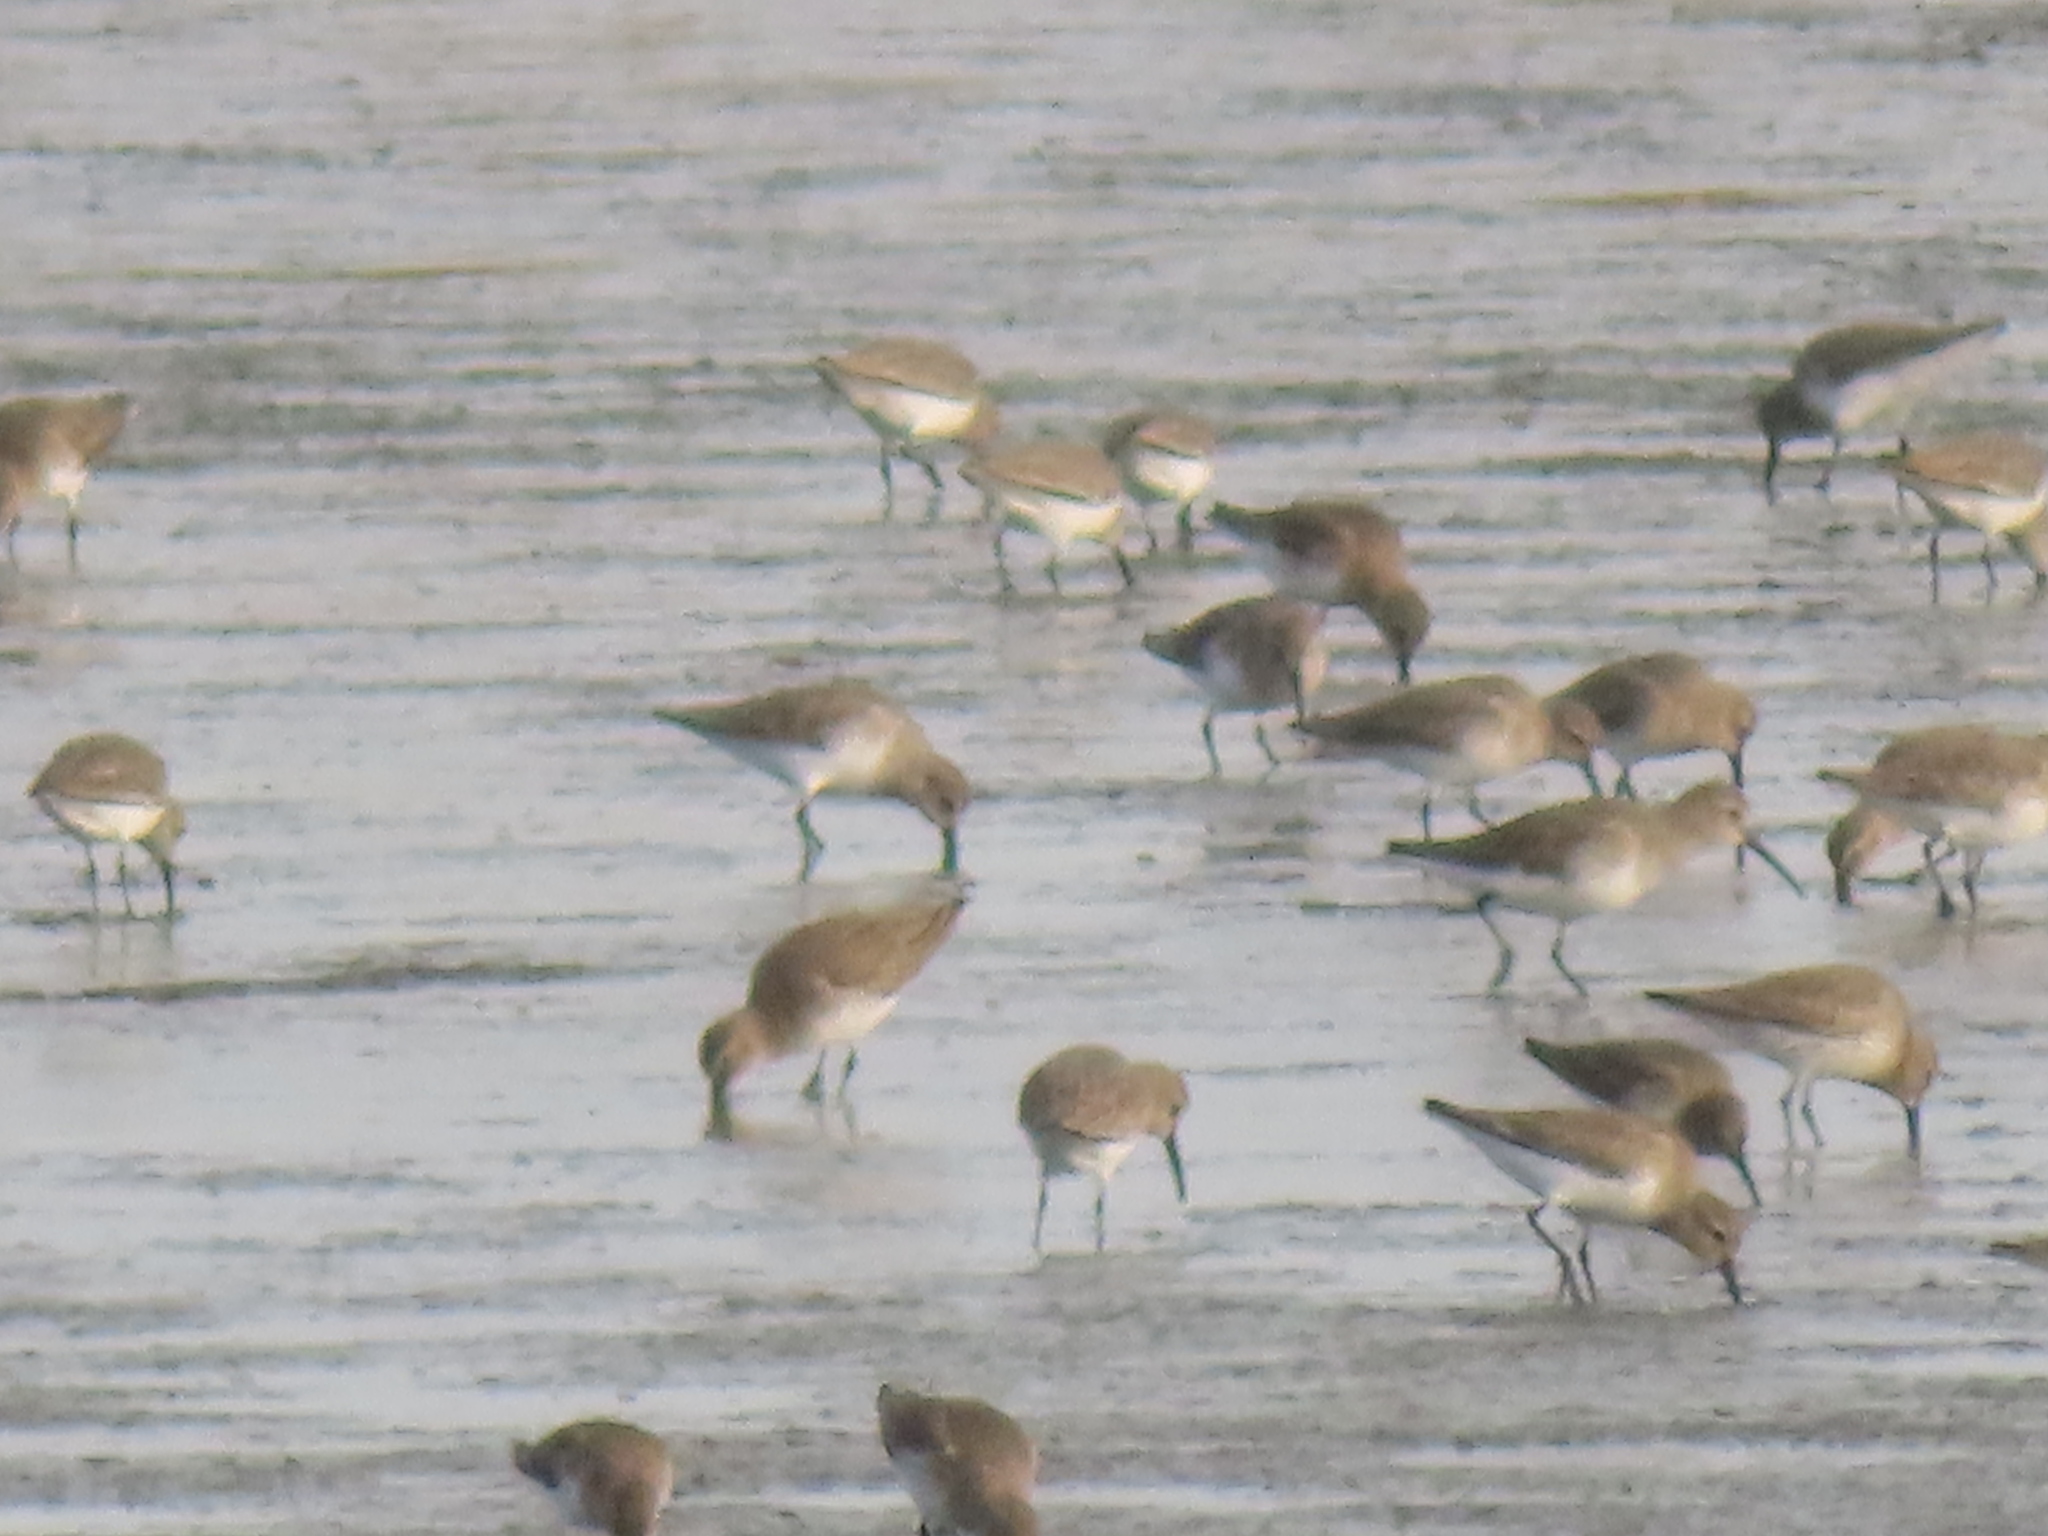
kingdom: Animalia
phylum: Chordata
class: Aves
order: Charadriiformes
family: Scolopacidae
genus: Calidris
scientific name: Calidris alpina
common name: Dunlin
